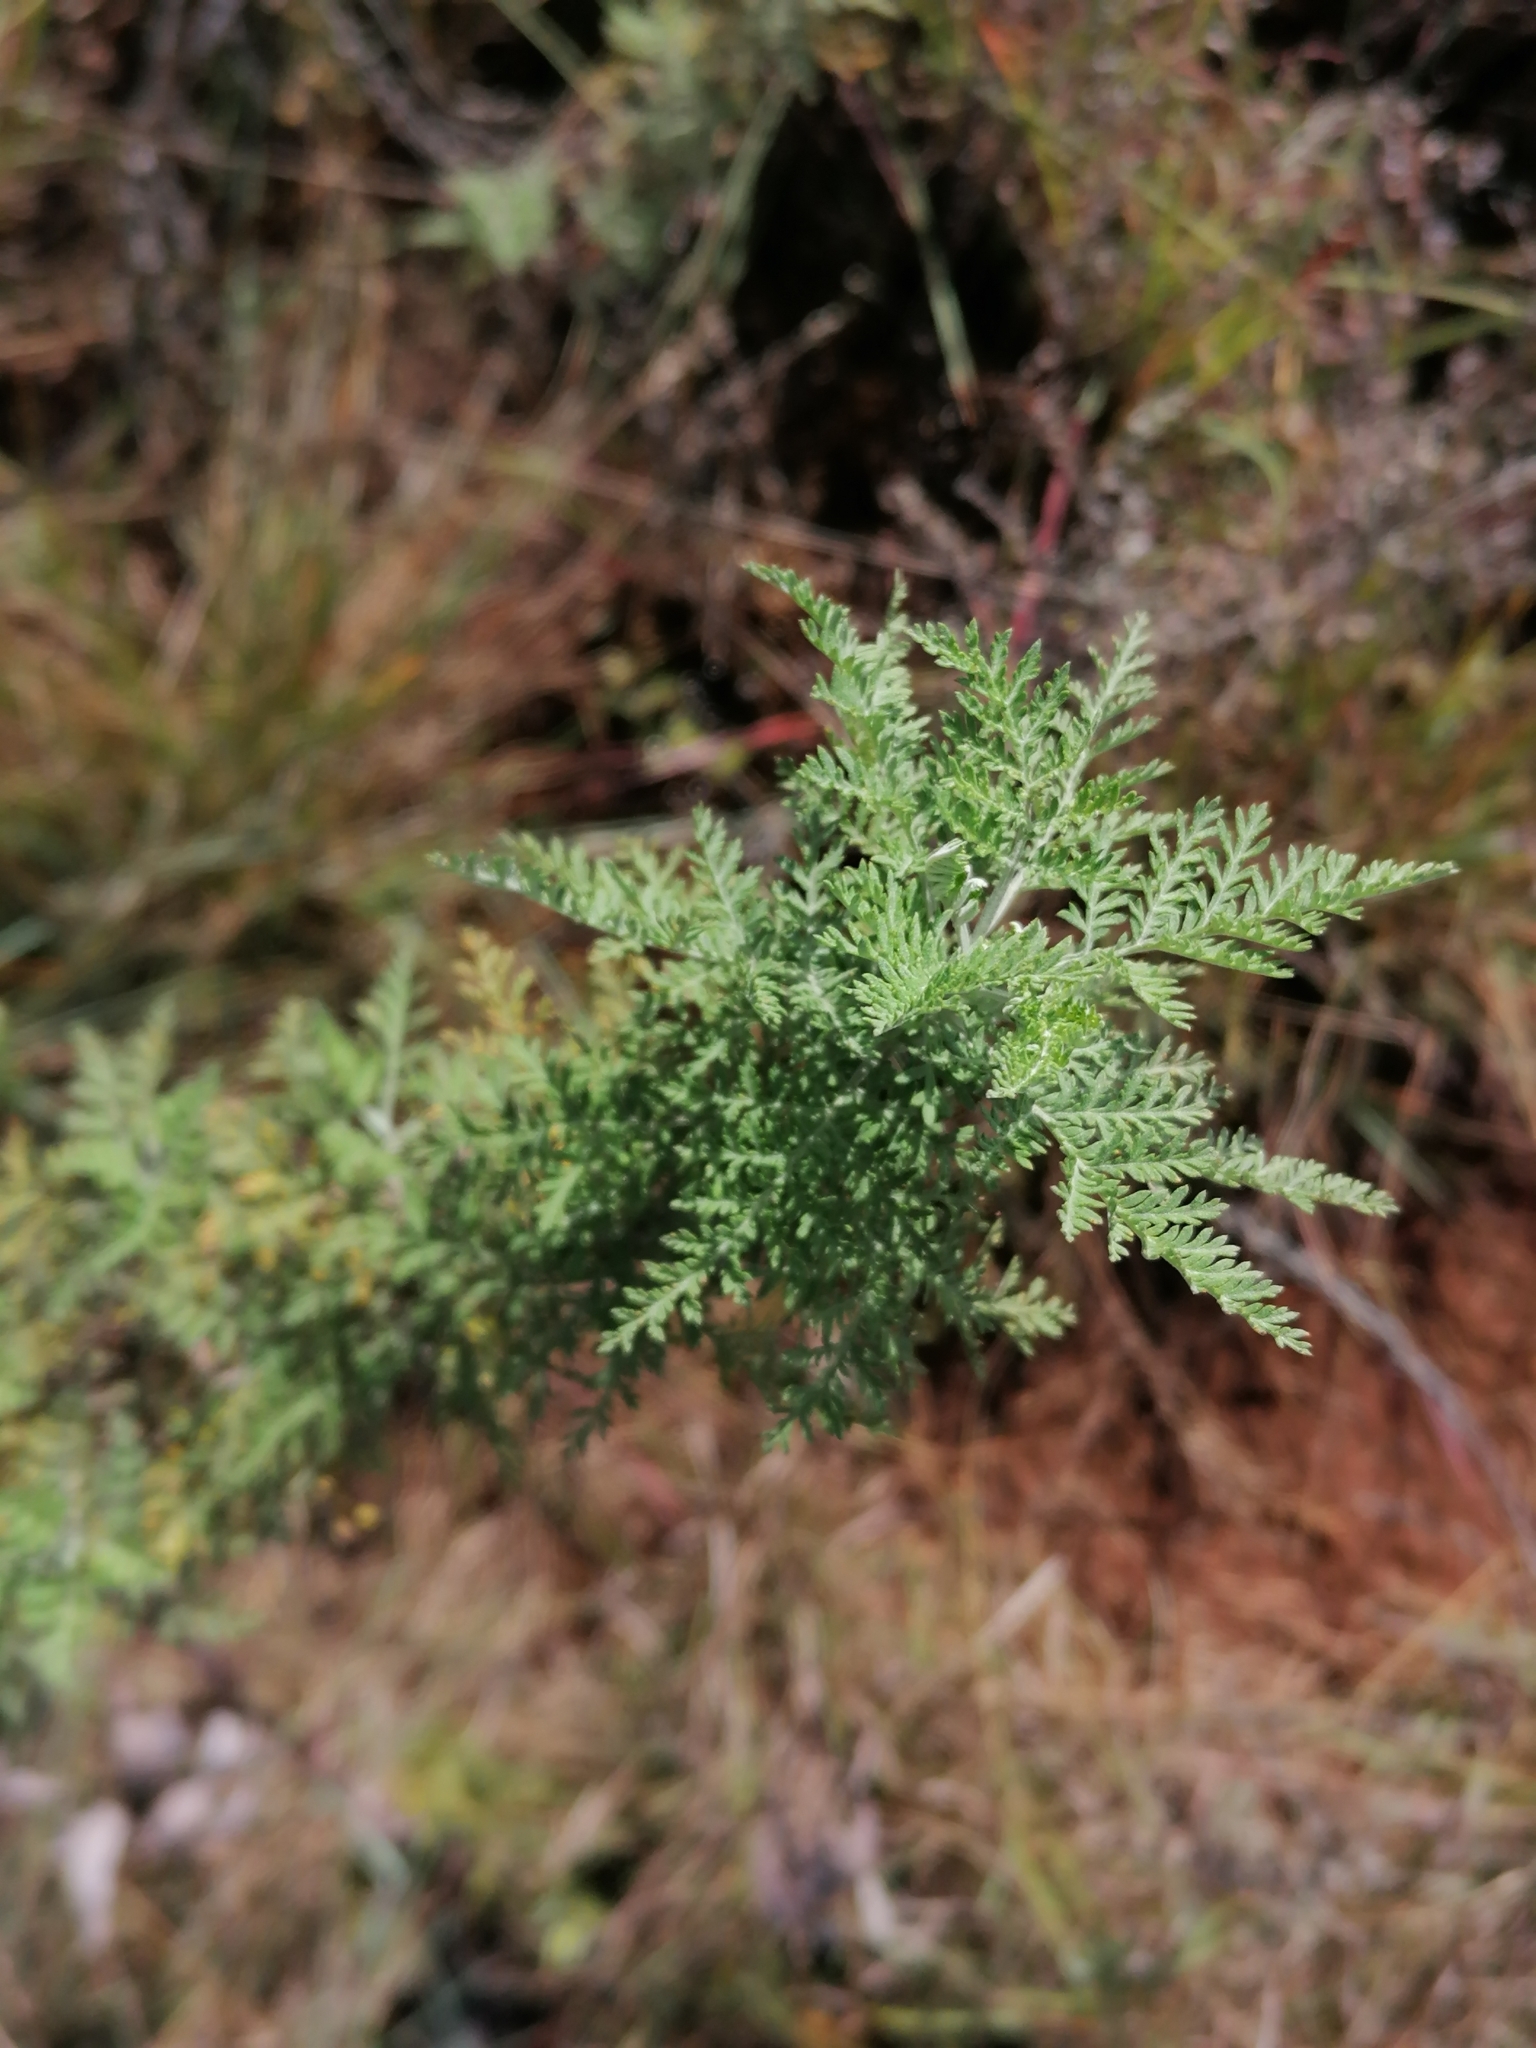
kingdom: Plantae
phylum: Tracheophyta
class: Magnoliopsida
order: Asterales
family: Asteraceae
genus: Artemisia
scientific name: Artemisia afra
